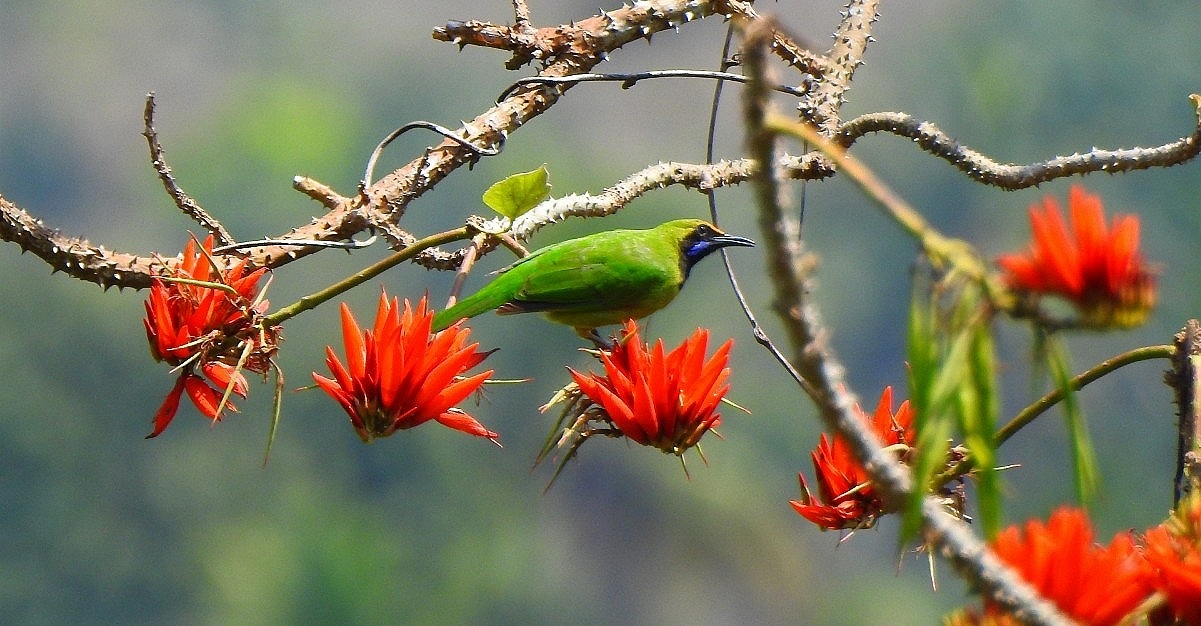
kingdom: Animalia
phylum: Chordata
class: Aves
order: Passeriformes
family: Chloropseidae
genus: Chloropsis
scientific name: Chloropsis aurifrons
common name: Golden-fronted leafbird
